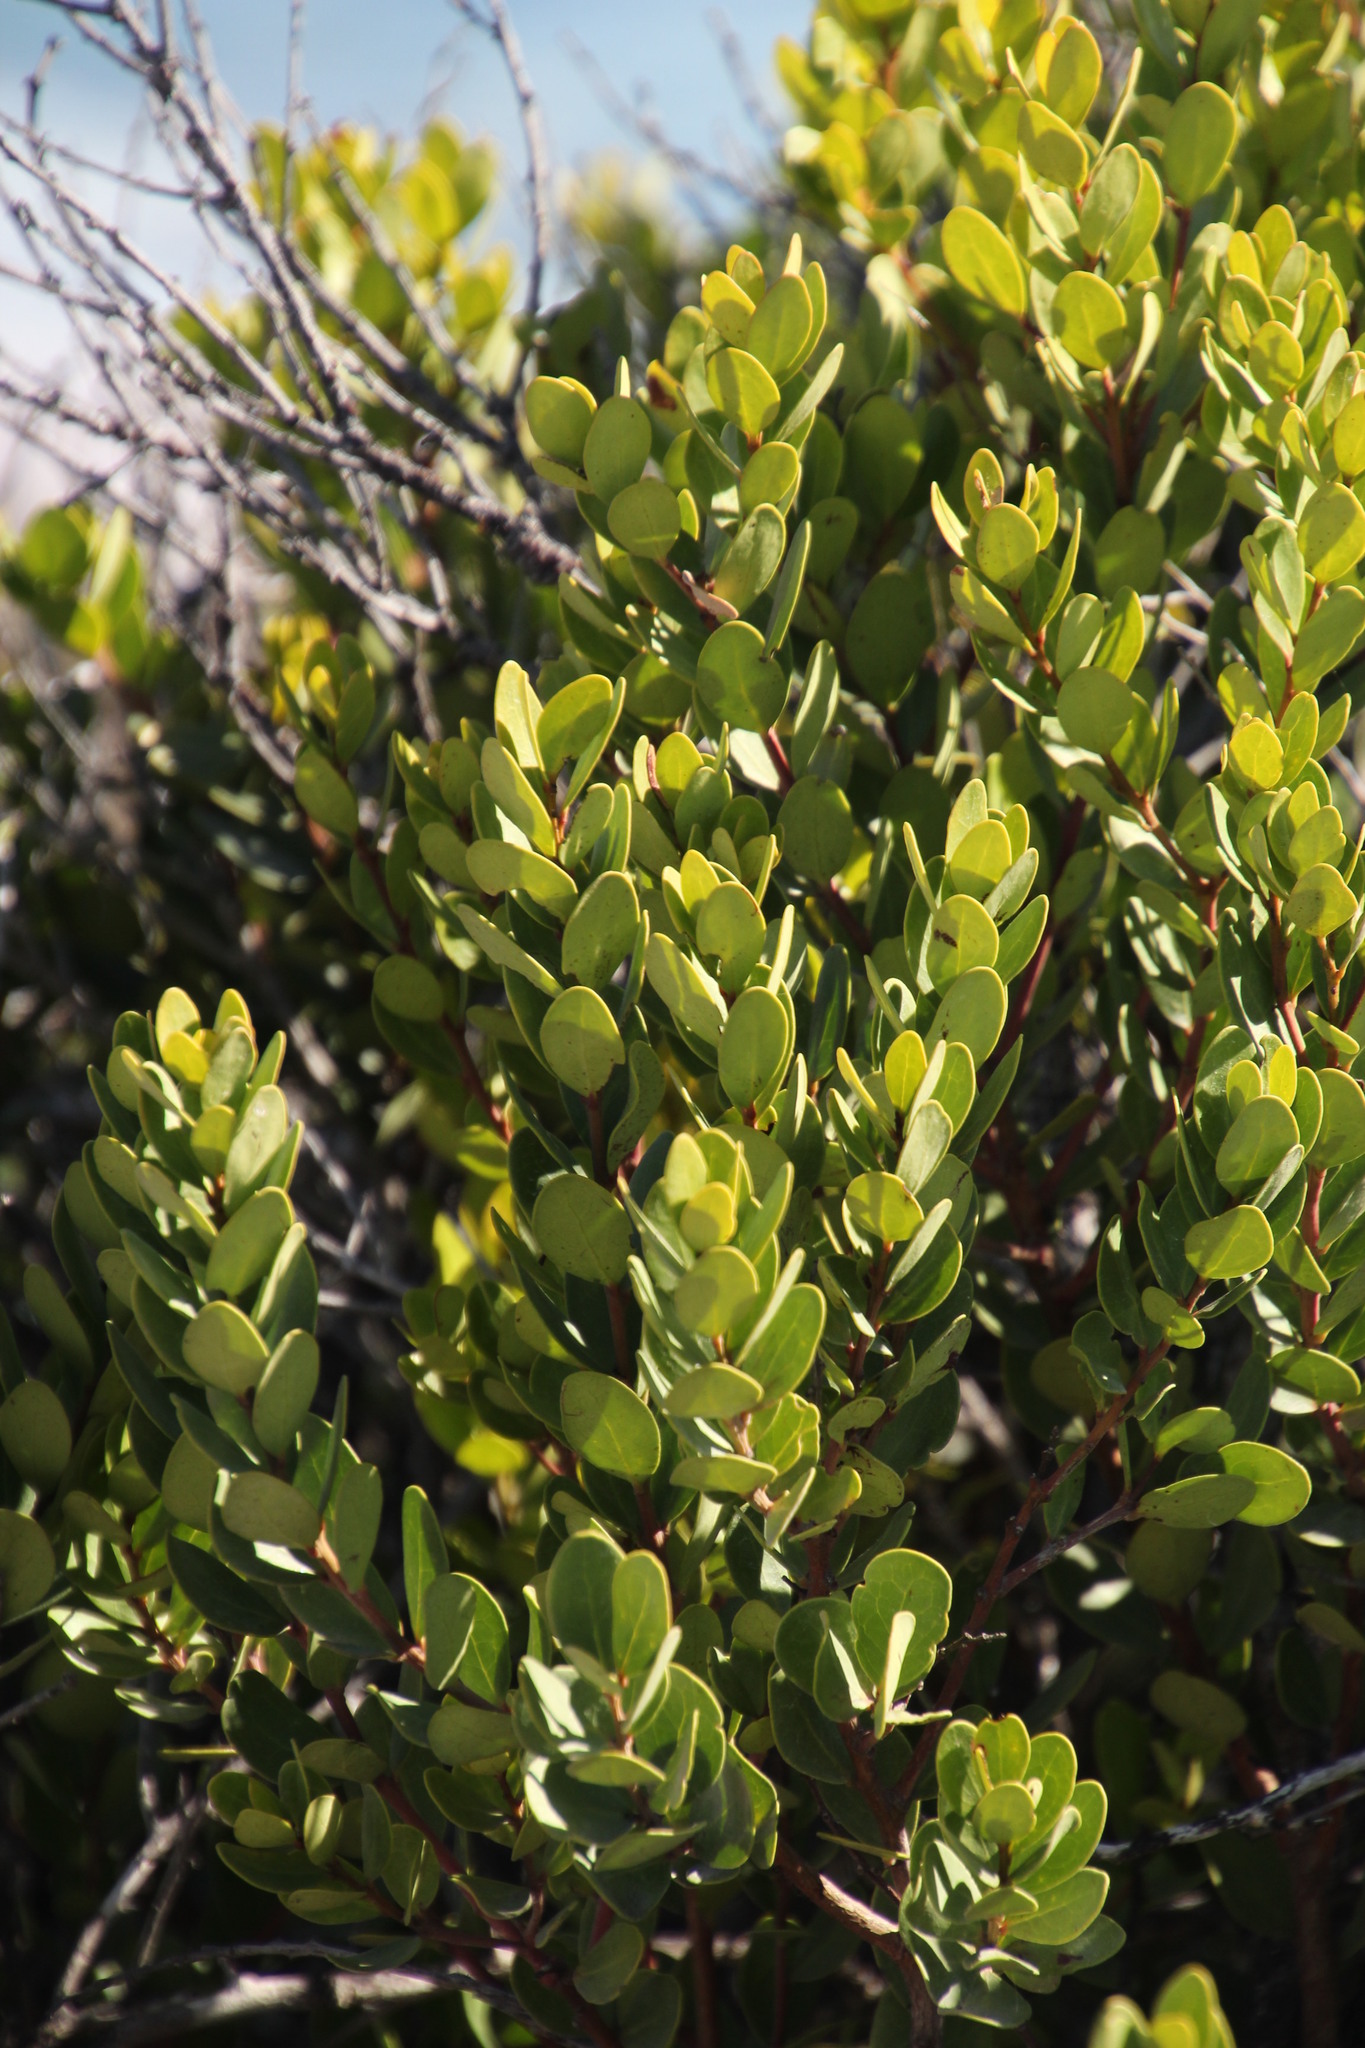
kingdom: Plantae
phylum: Tracheophyta
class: Magnoliopsida
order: Ericales
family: Ebenaceae
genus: Euclea
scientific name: Euclea racemosa
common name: Dune guarri
